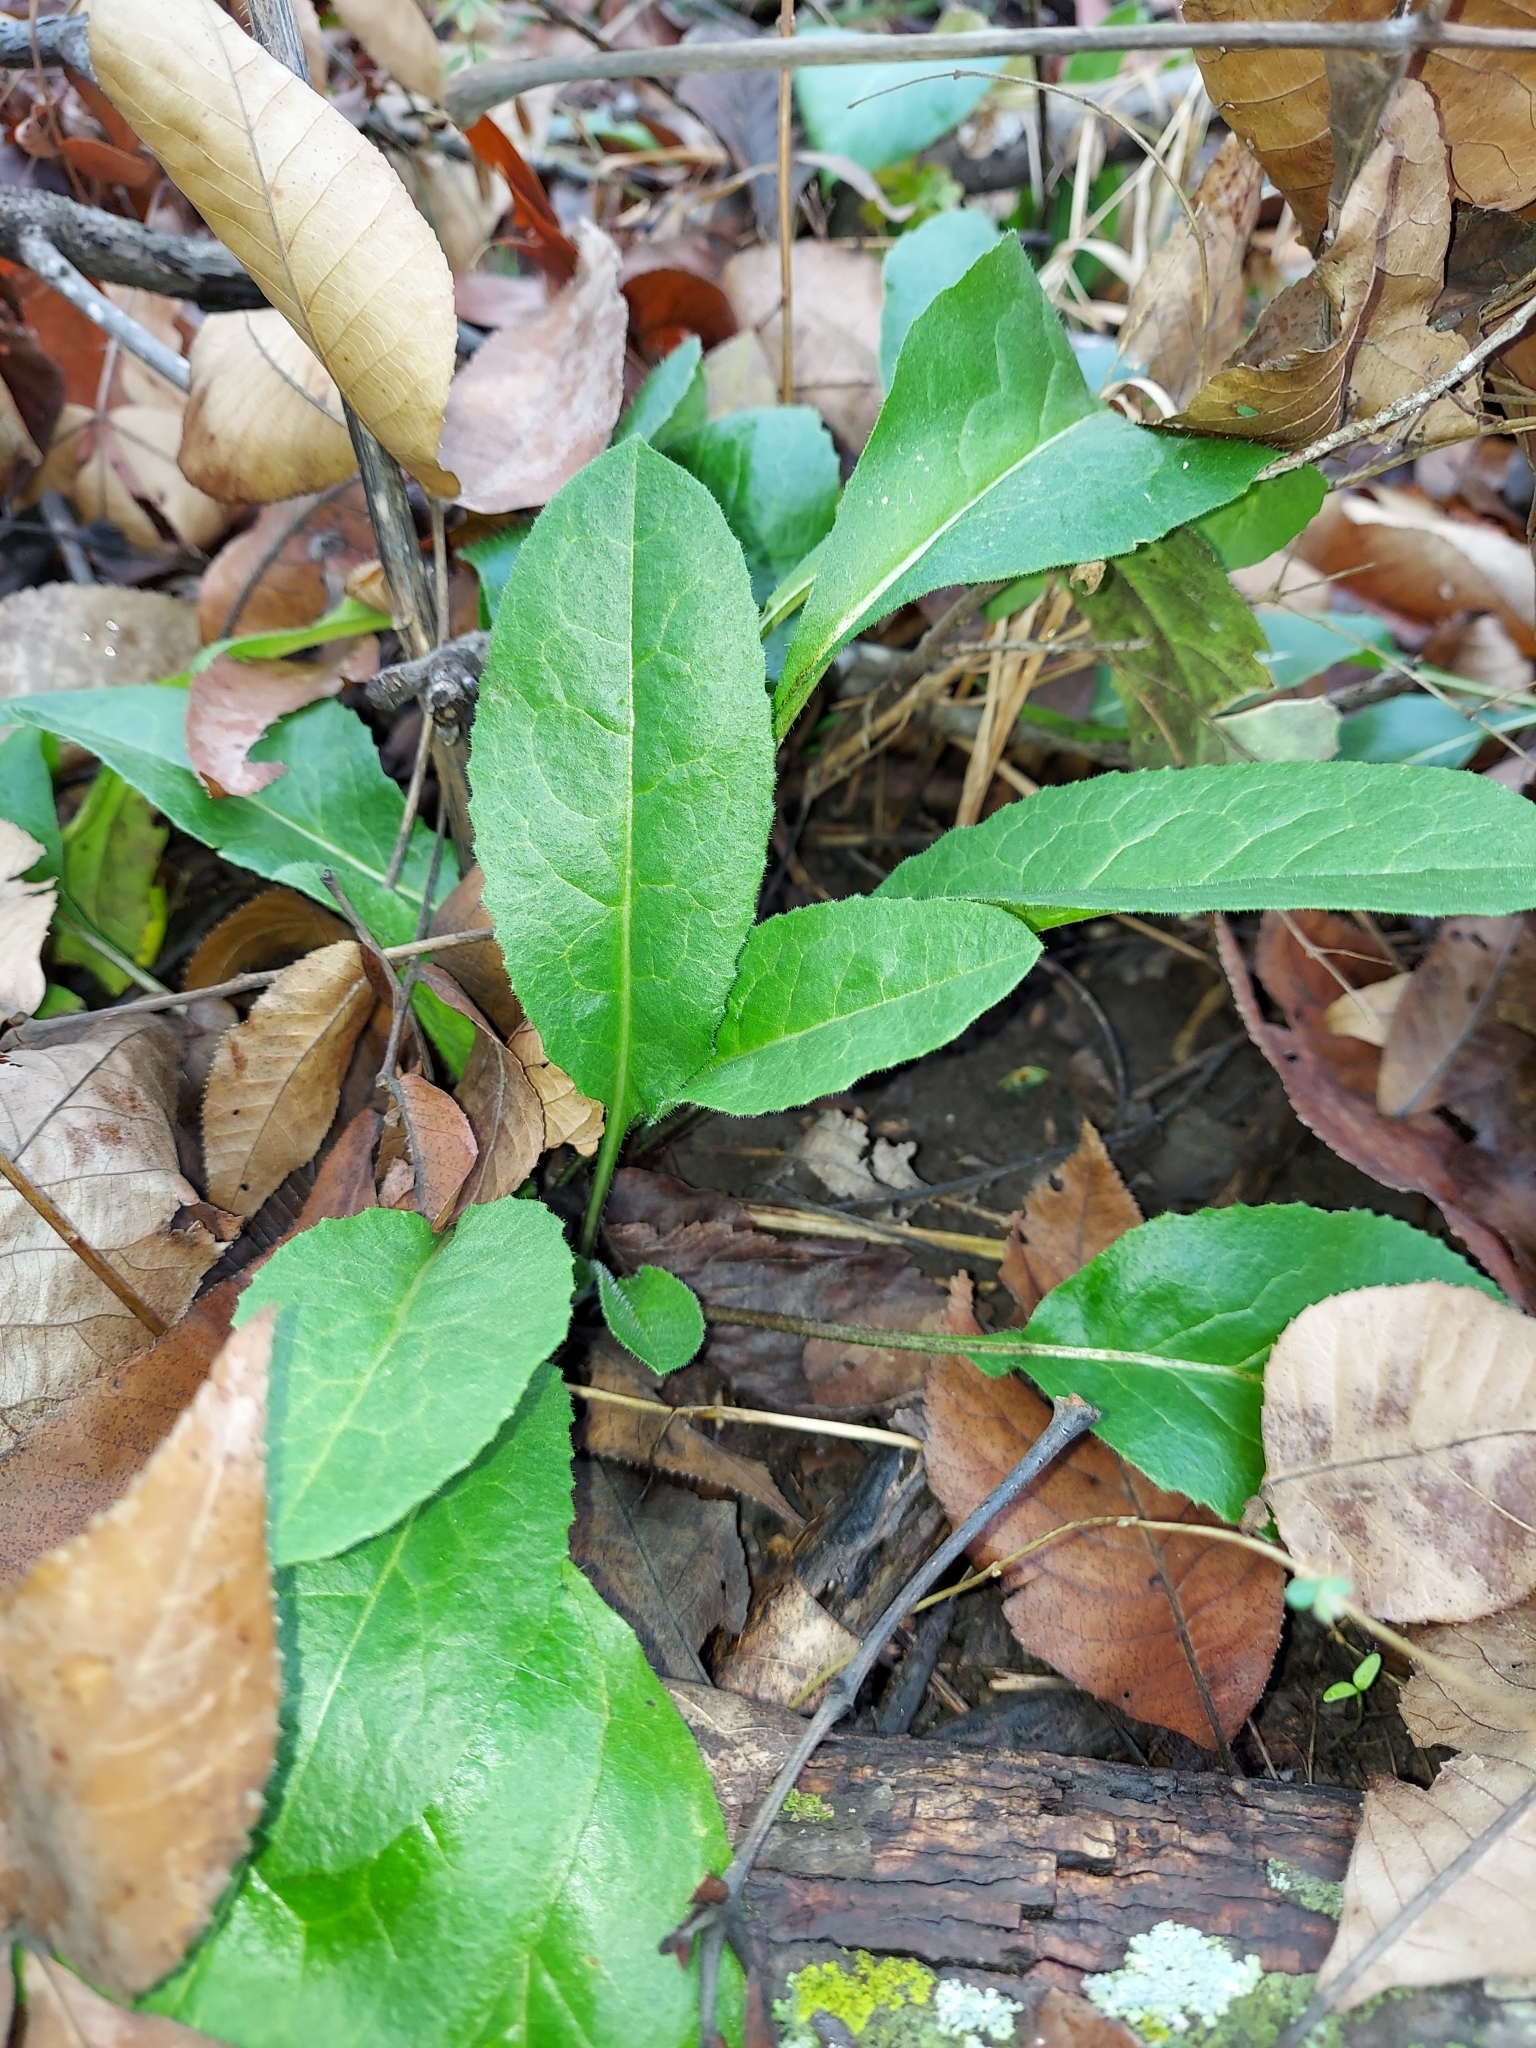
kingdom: Plantae
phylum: Tracheophyta
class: Magnoliopsida
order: Brassicales
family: Brassicaceae
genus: Hesperis
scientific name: Hesperis matronalis
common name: Dame's-violet
